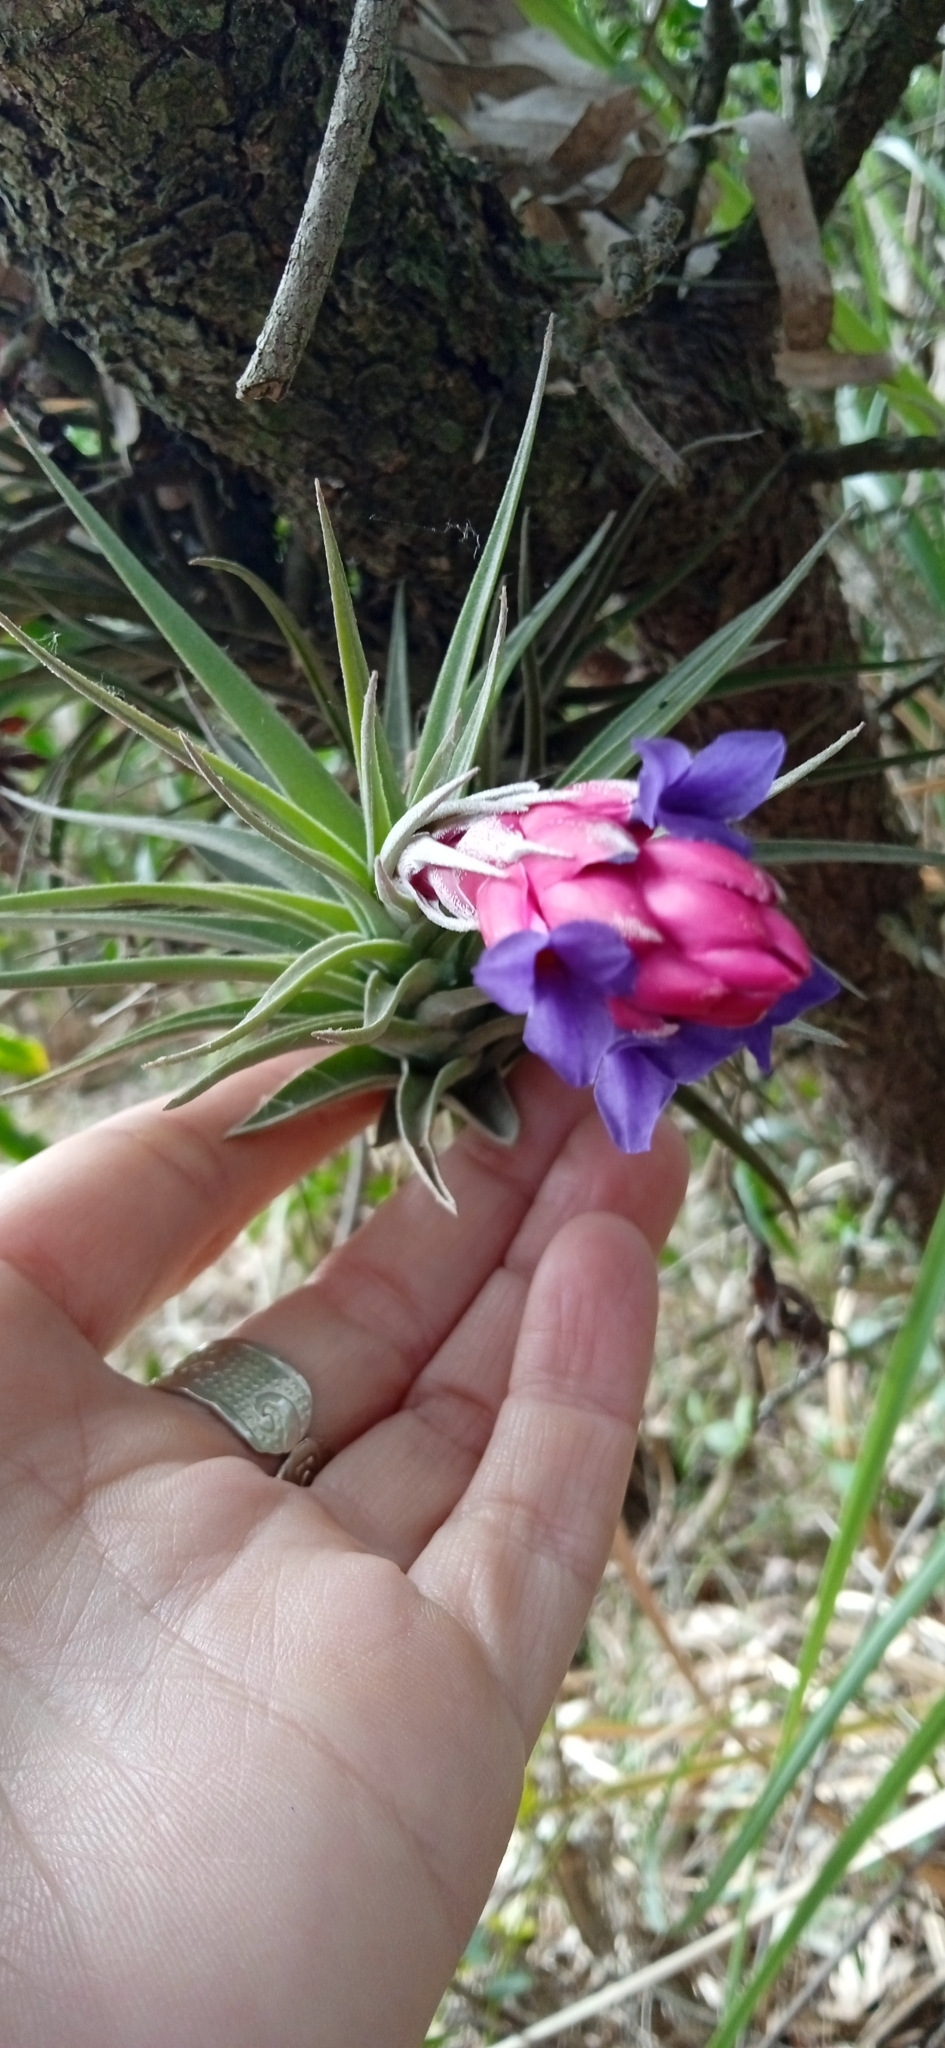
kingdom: Plantae
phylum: Tracheophyta
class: Liliopsida
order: Poales
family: Bromeliaceae
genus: Tillandsia
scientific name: Tillandsia aeranthos
